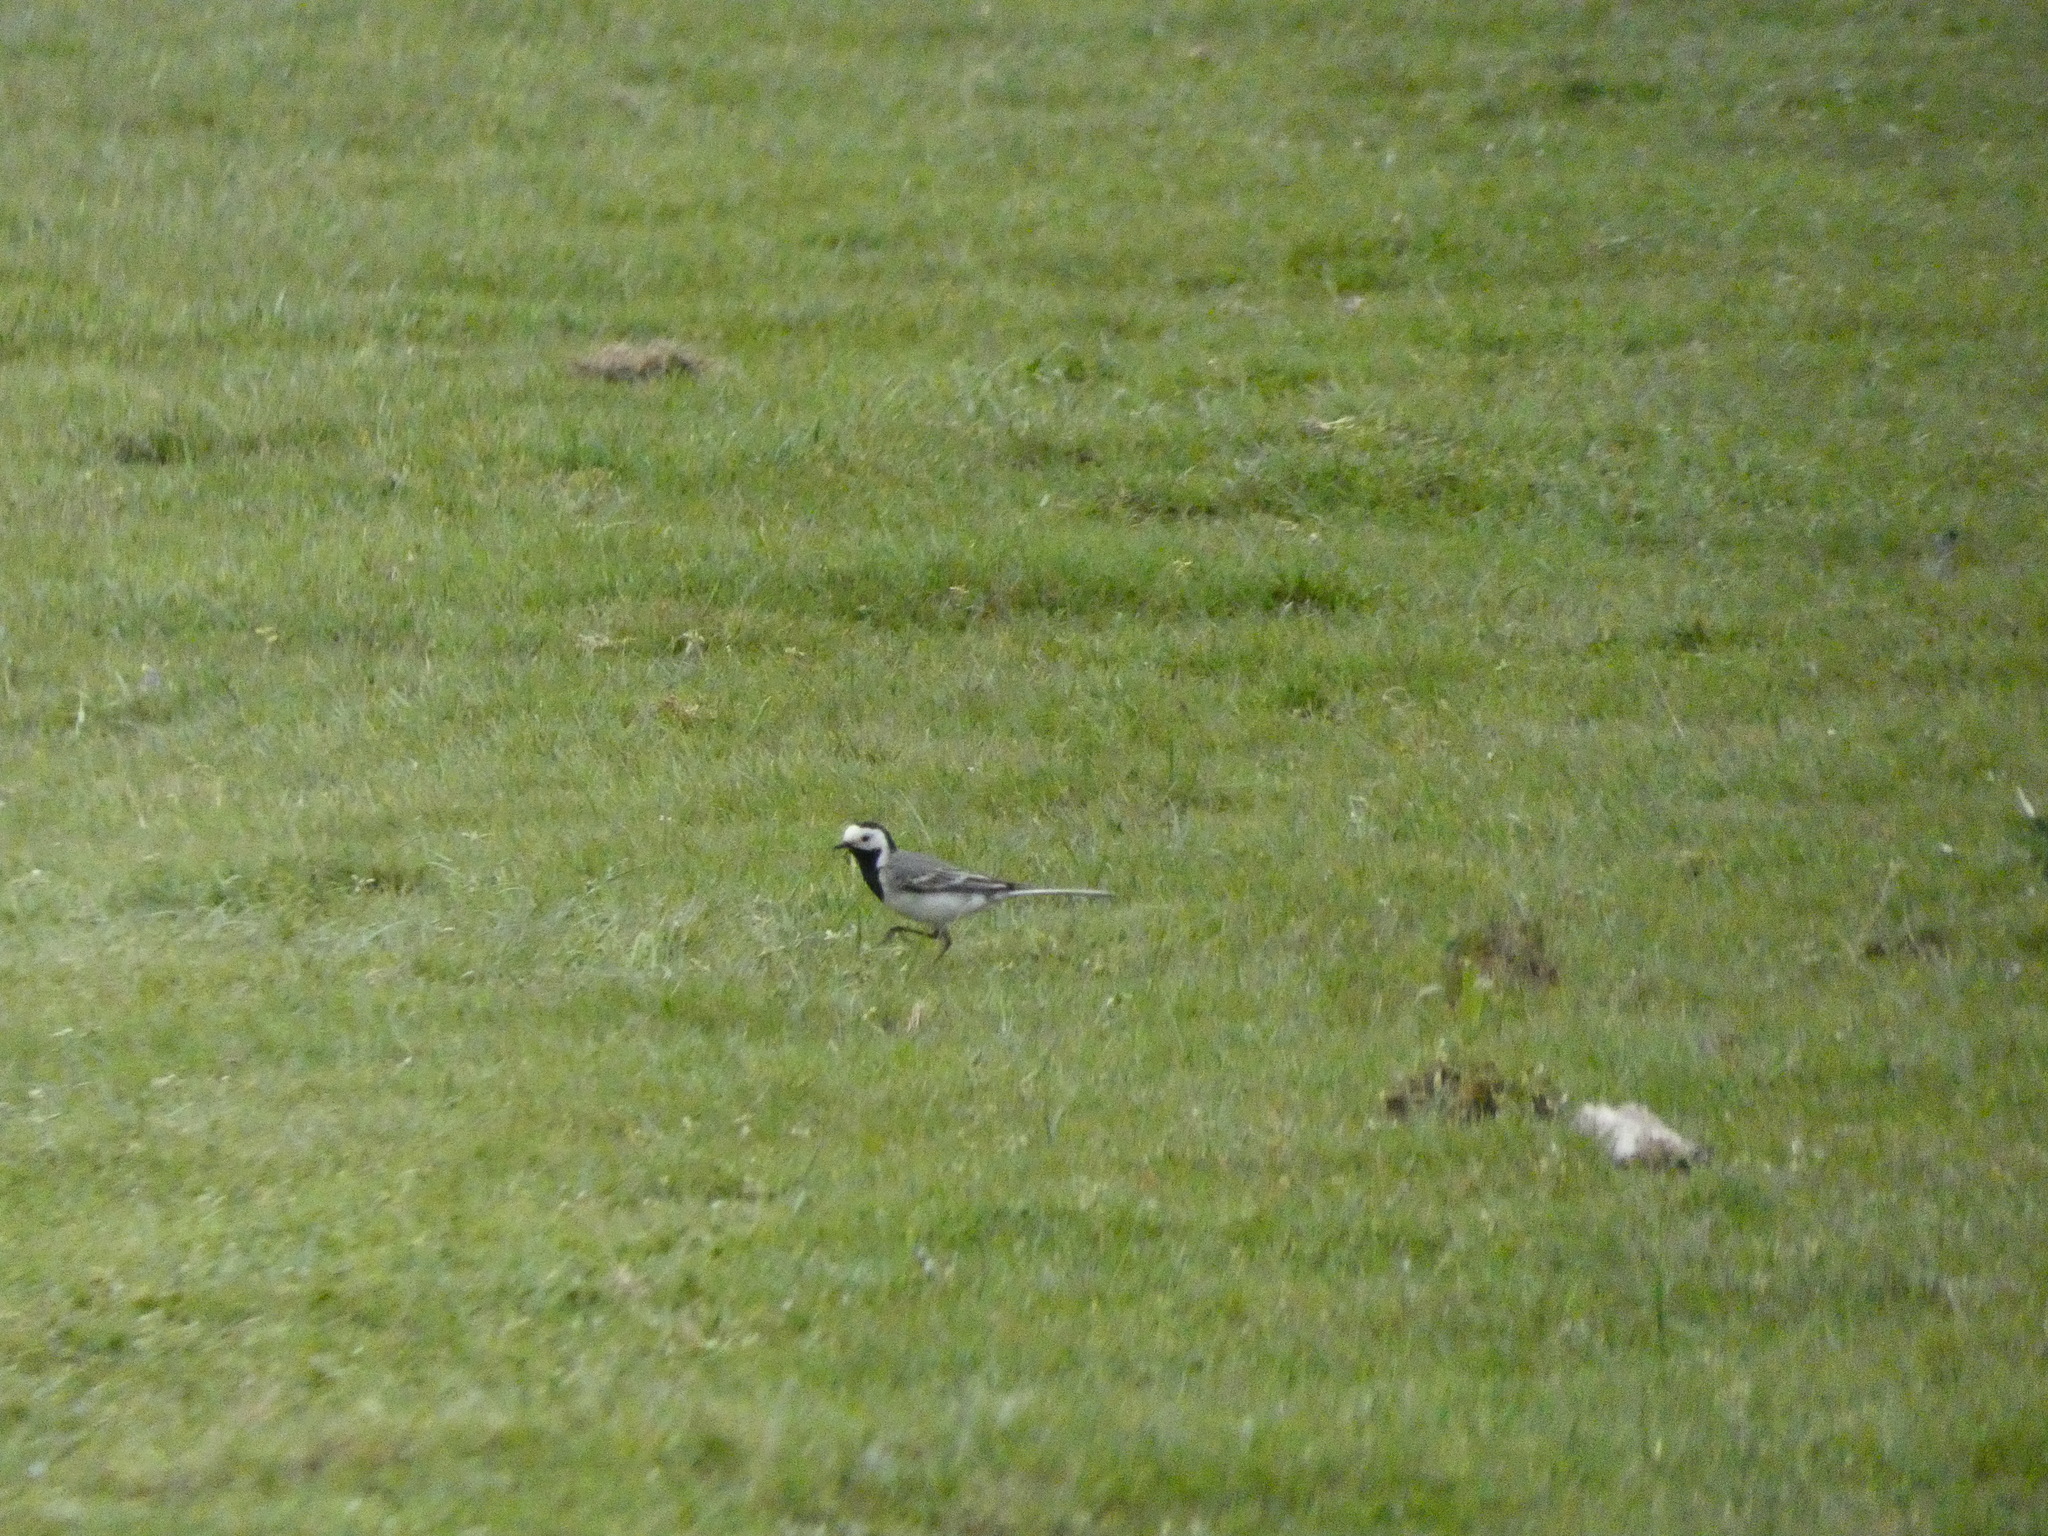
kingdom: Animalia
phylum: Chordata
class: Aves
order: Passeriformes
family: Motacillidae
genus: Motacilla
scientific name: Motacilla alba
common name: White wagtail
